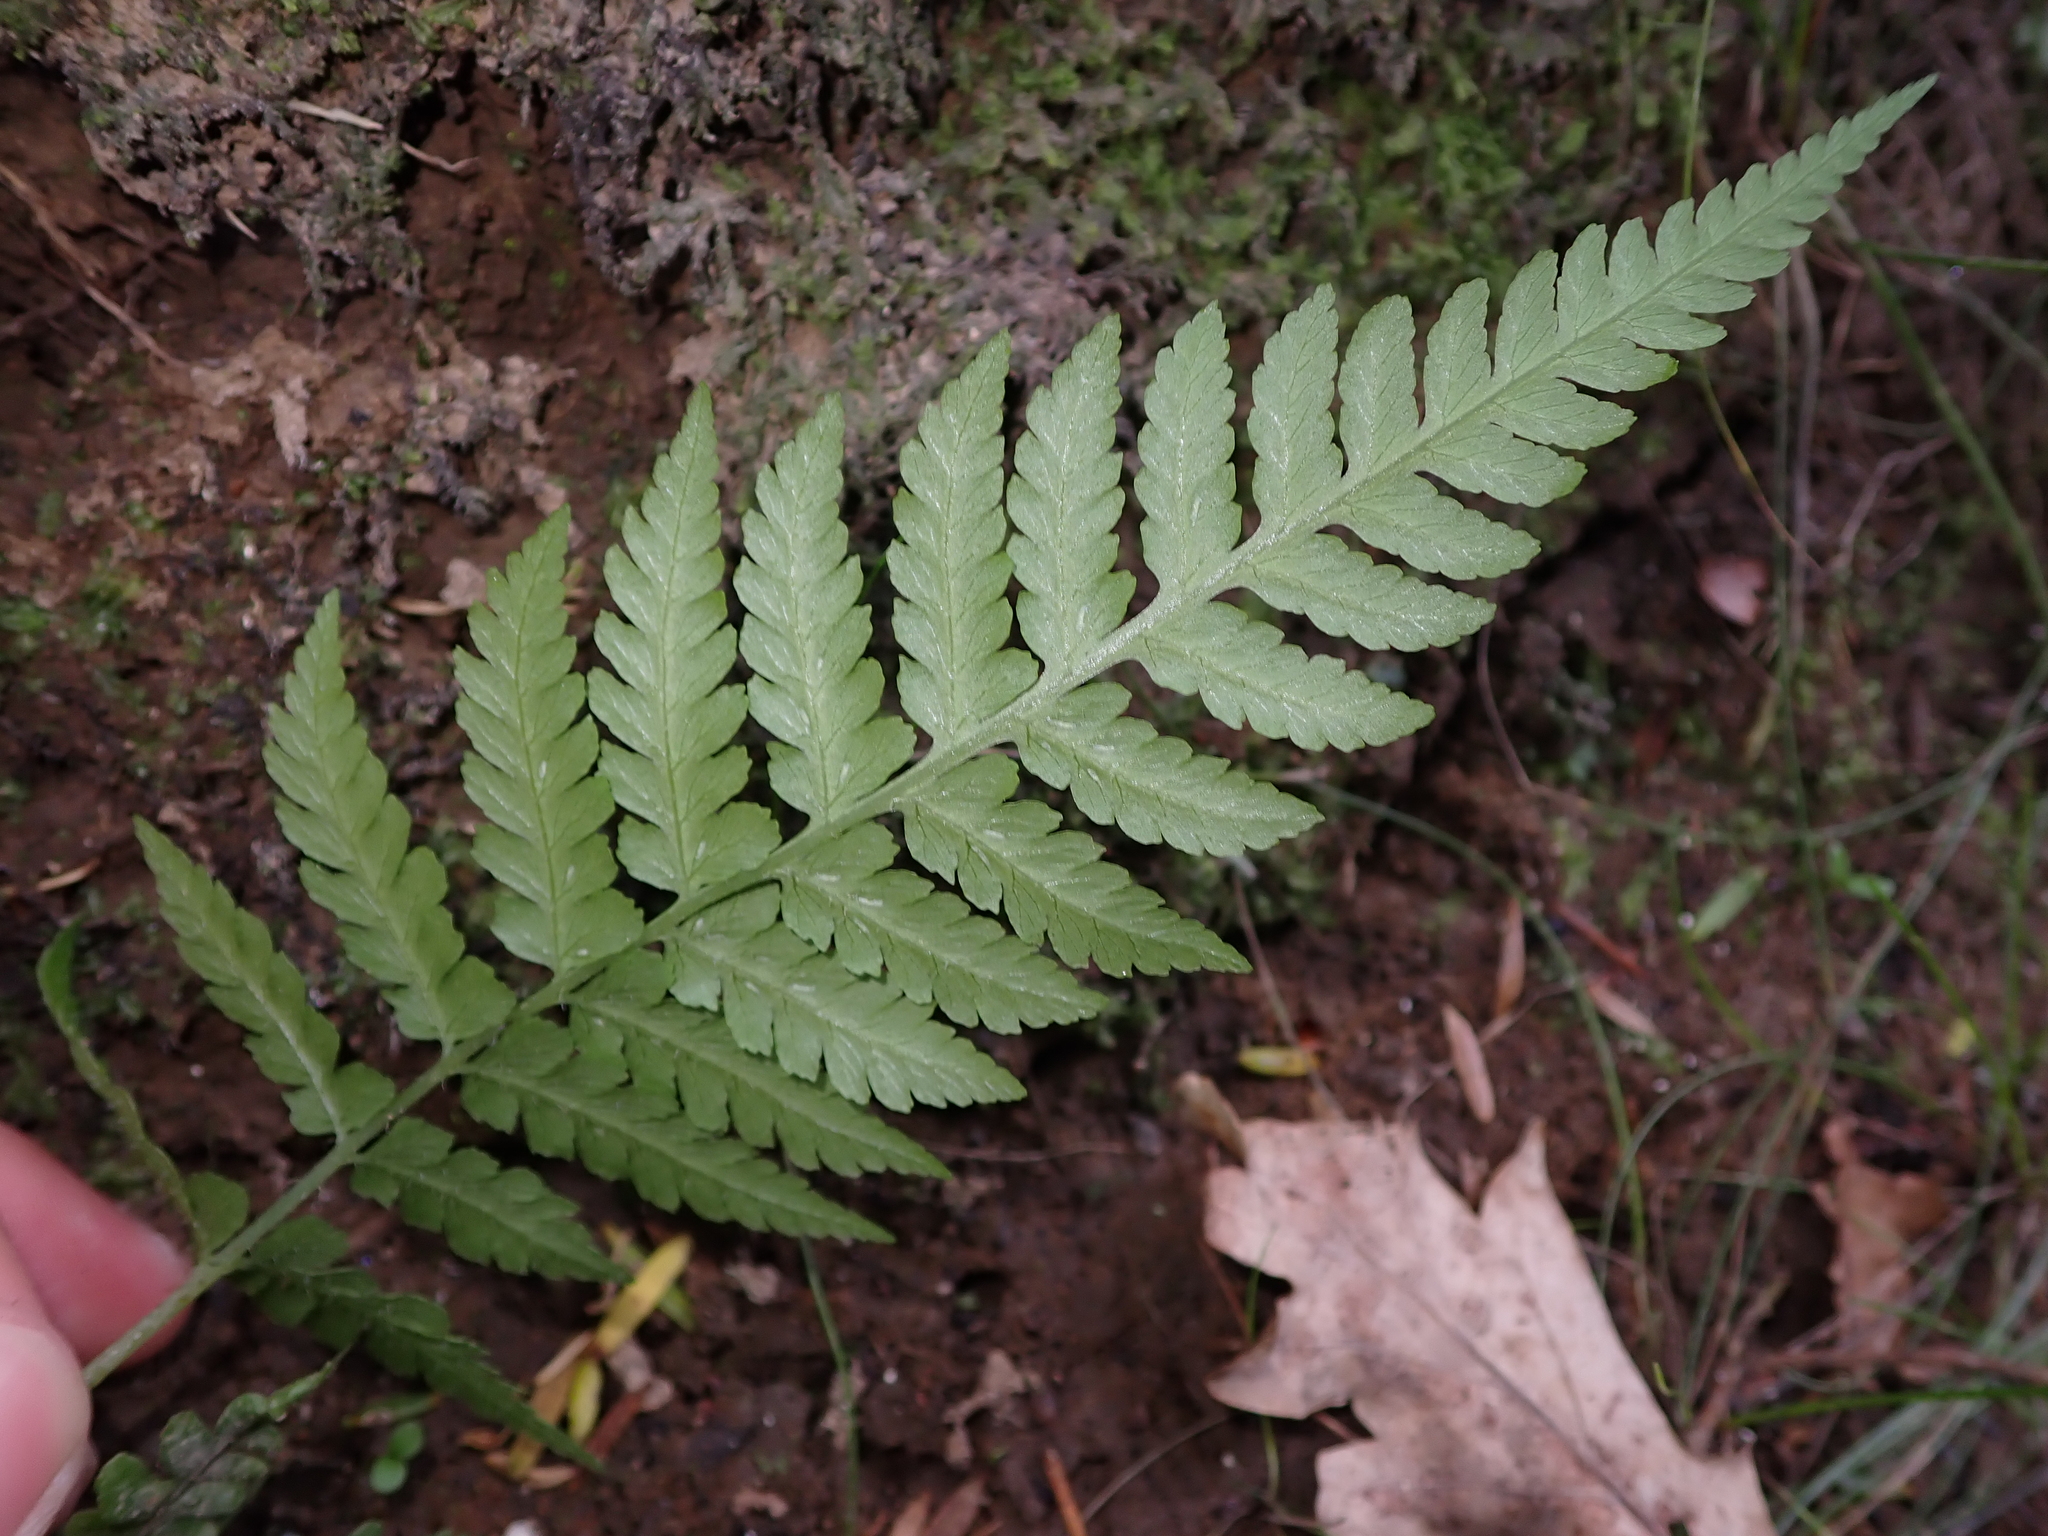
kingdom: Plantae
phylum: Tracheophyta
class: Polypodiopsida
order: Polypodiales
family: Athyriaceae
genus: Diplazium
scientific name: Diplazium congruum
